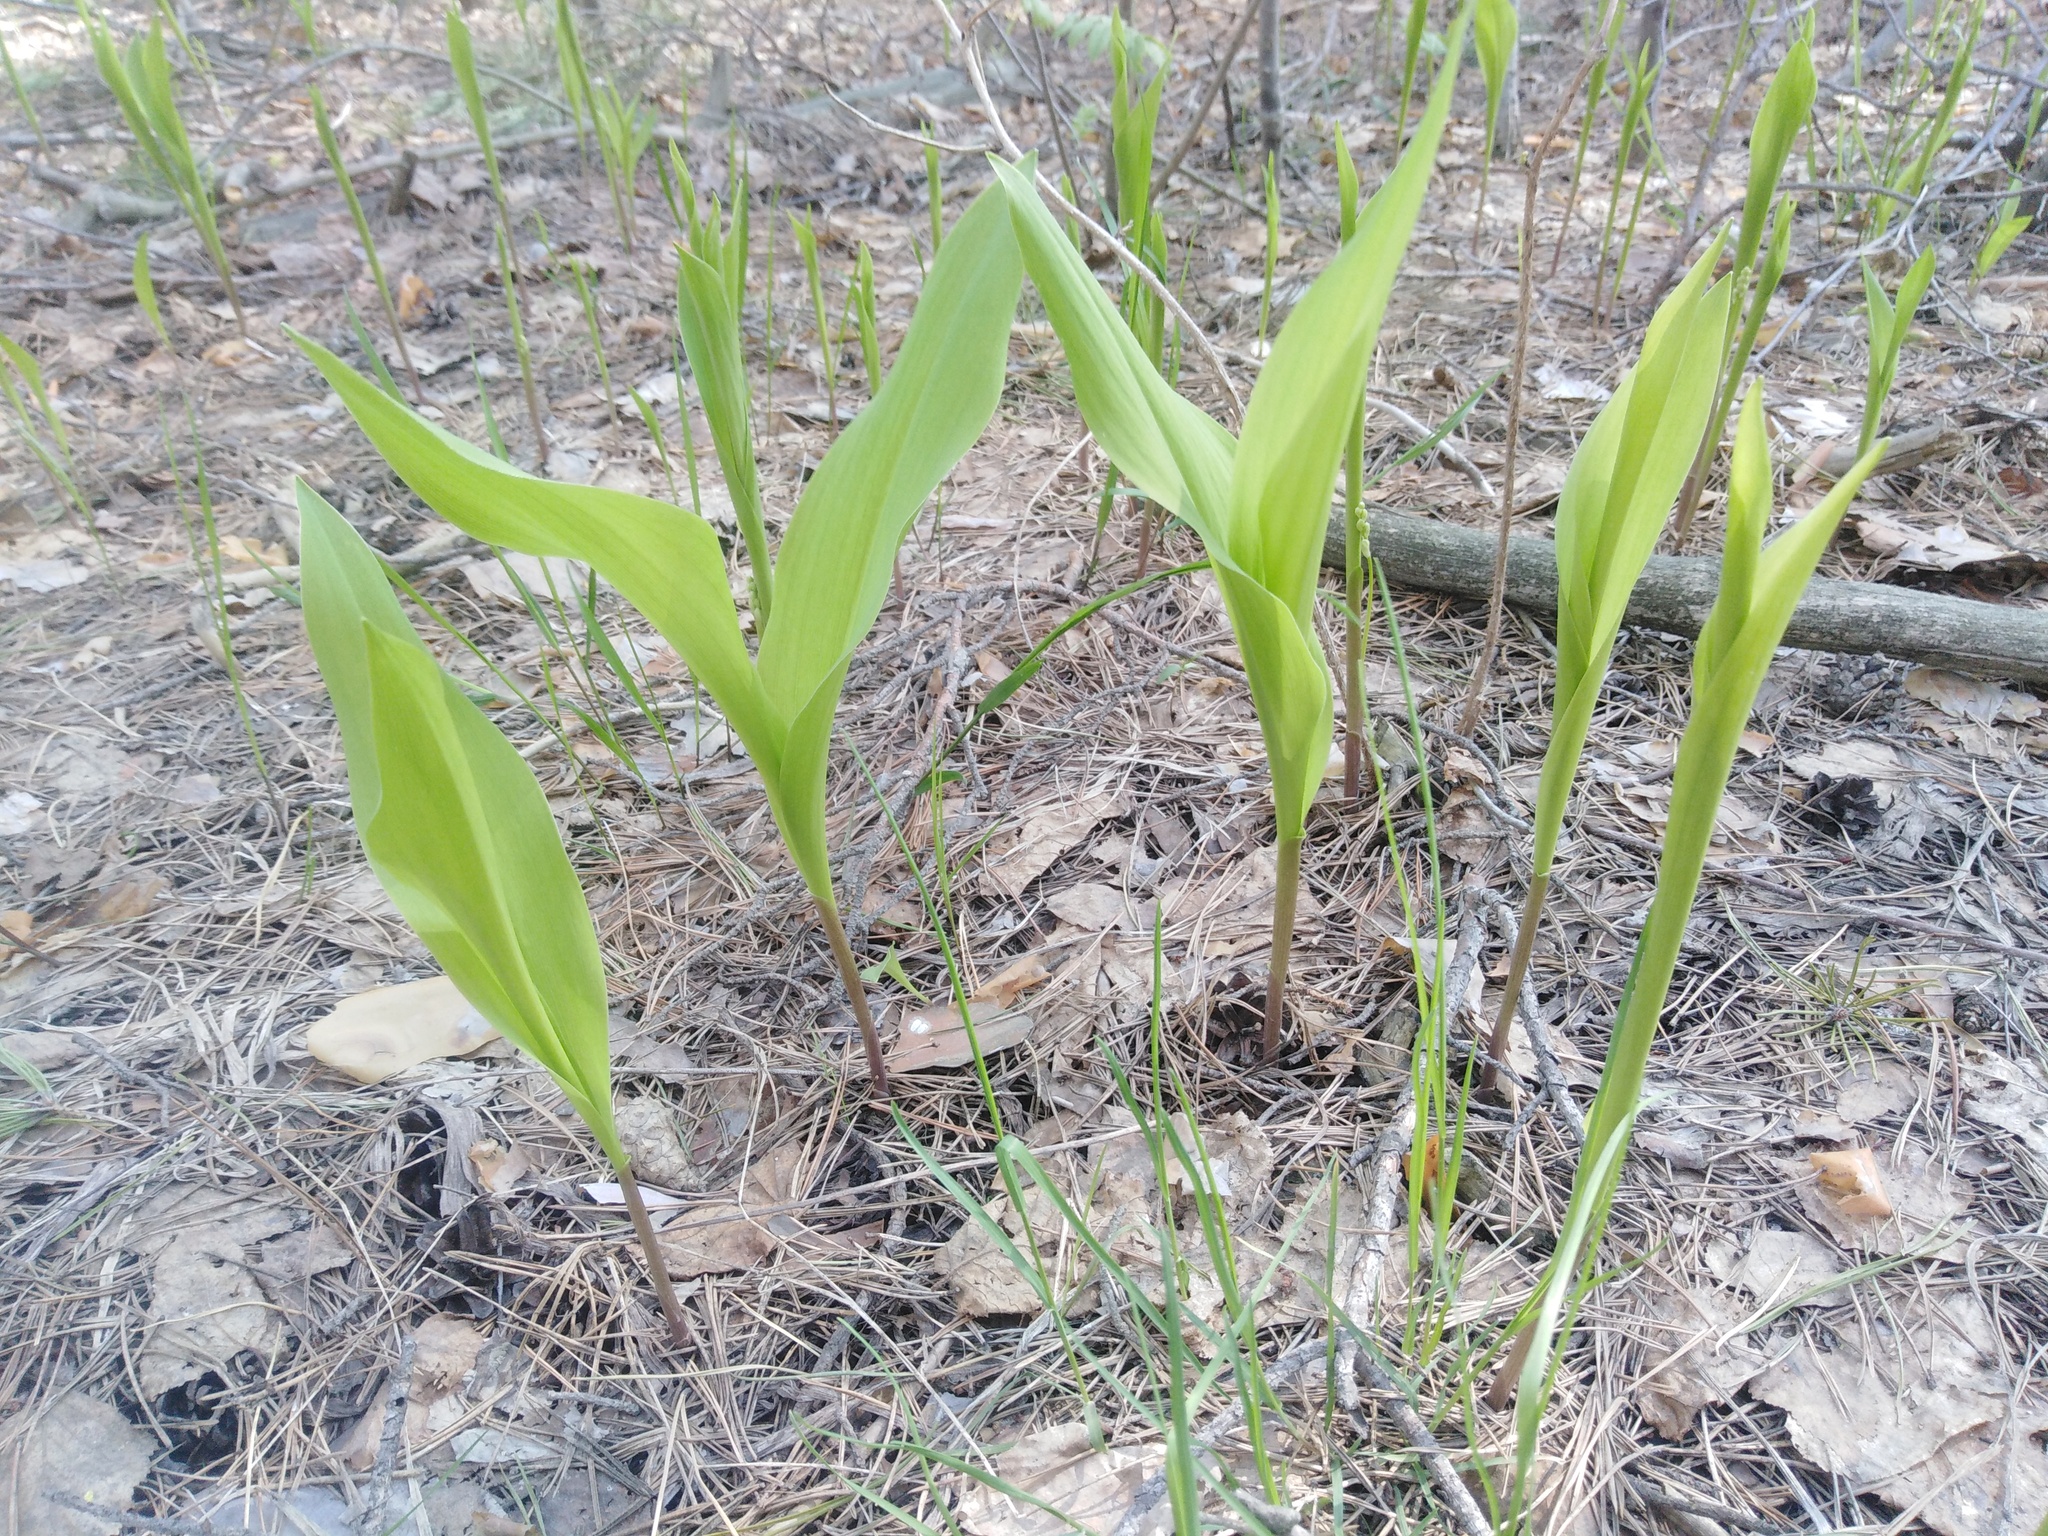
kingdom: Plantae
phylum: Tracheophyta
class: Liliopsida
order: Asparagales
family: Asparagaceae
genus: Convallaria
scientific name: Convallaria majalis
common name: Lily-of-the-valley
